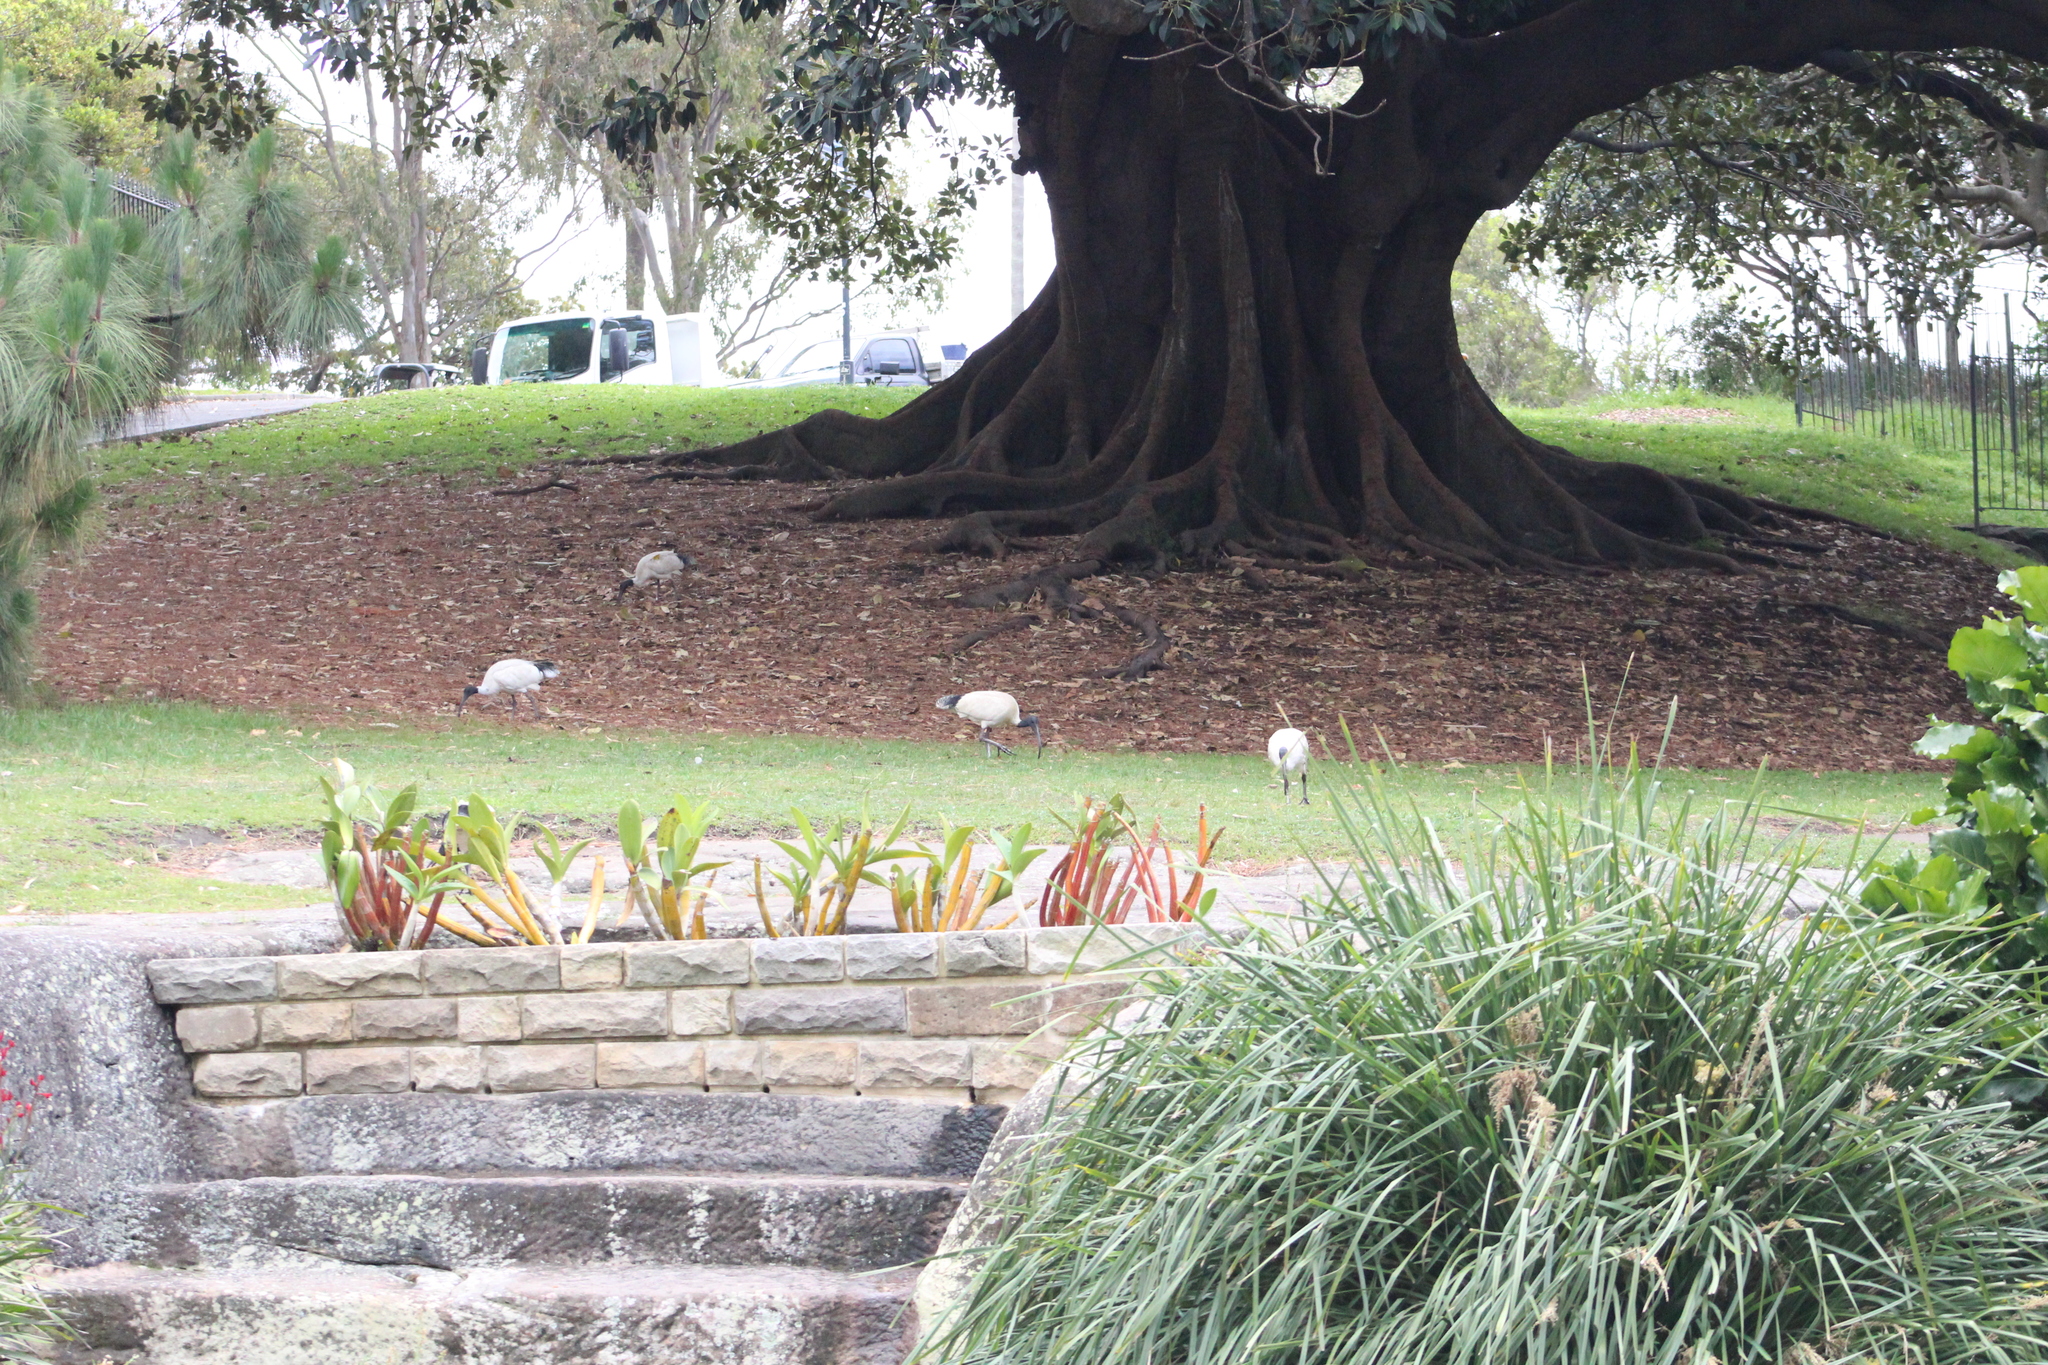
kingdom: Animalia
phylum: Chordata
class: Aves
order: Pelecaniformes
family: Threskiornithidae
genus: Threskiornis
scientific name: Threskiornis molucca
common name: Australian white ibis
